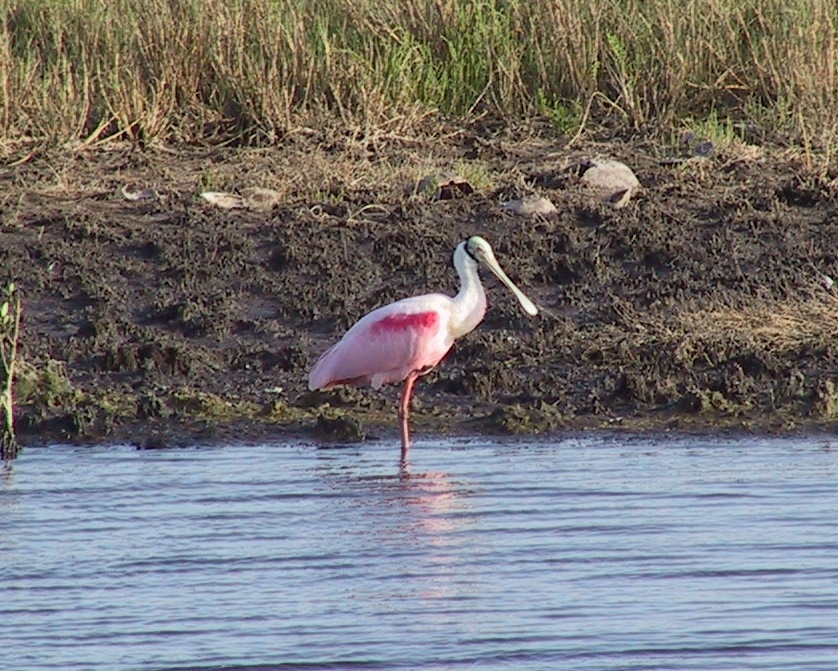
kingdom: Animalia
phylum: Chordata
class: Aves
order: Pelecaniformes
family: Threskiornithidae
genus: Platalea
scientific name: Platalea ajaja
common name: Roseate spoonbill
